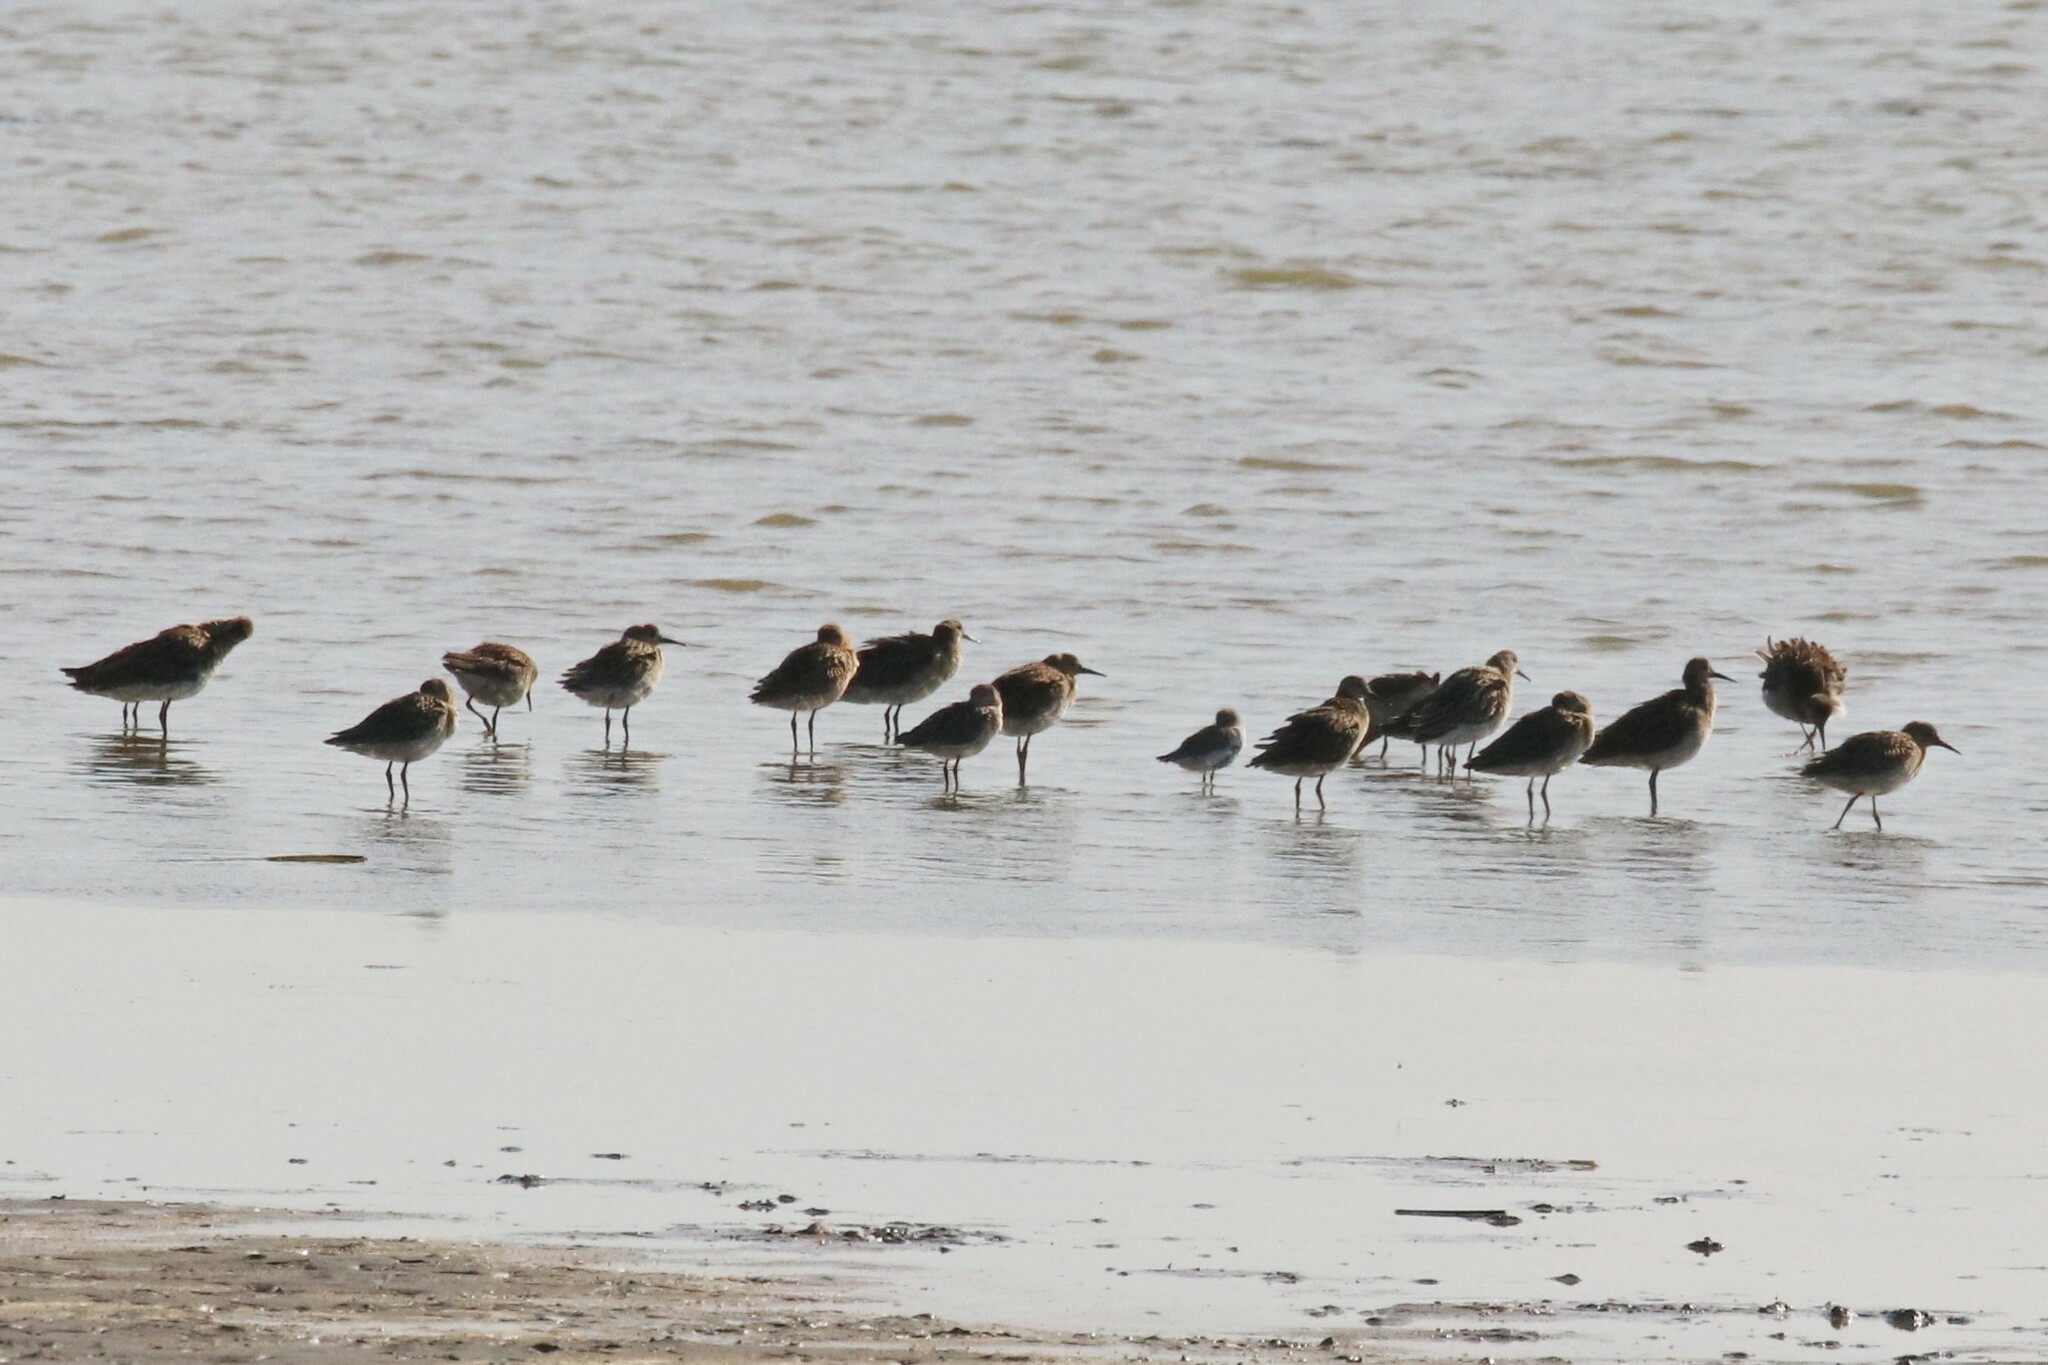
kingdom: Animalia
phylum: Chordata
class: Aves
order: Charadriiformes
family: Scolopacidae
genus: Calidris
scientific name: Calidris pugnax
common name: Ruff
